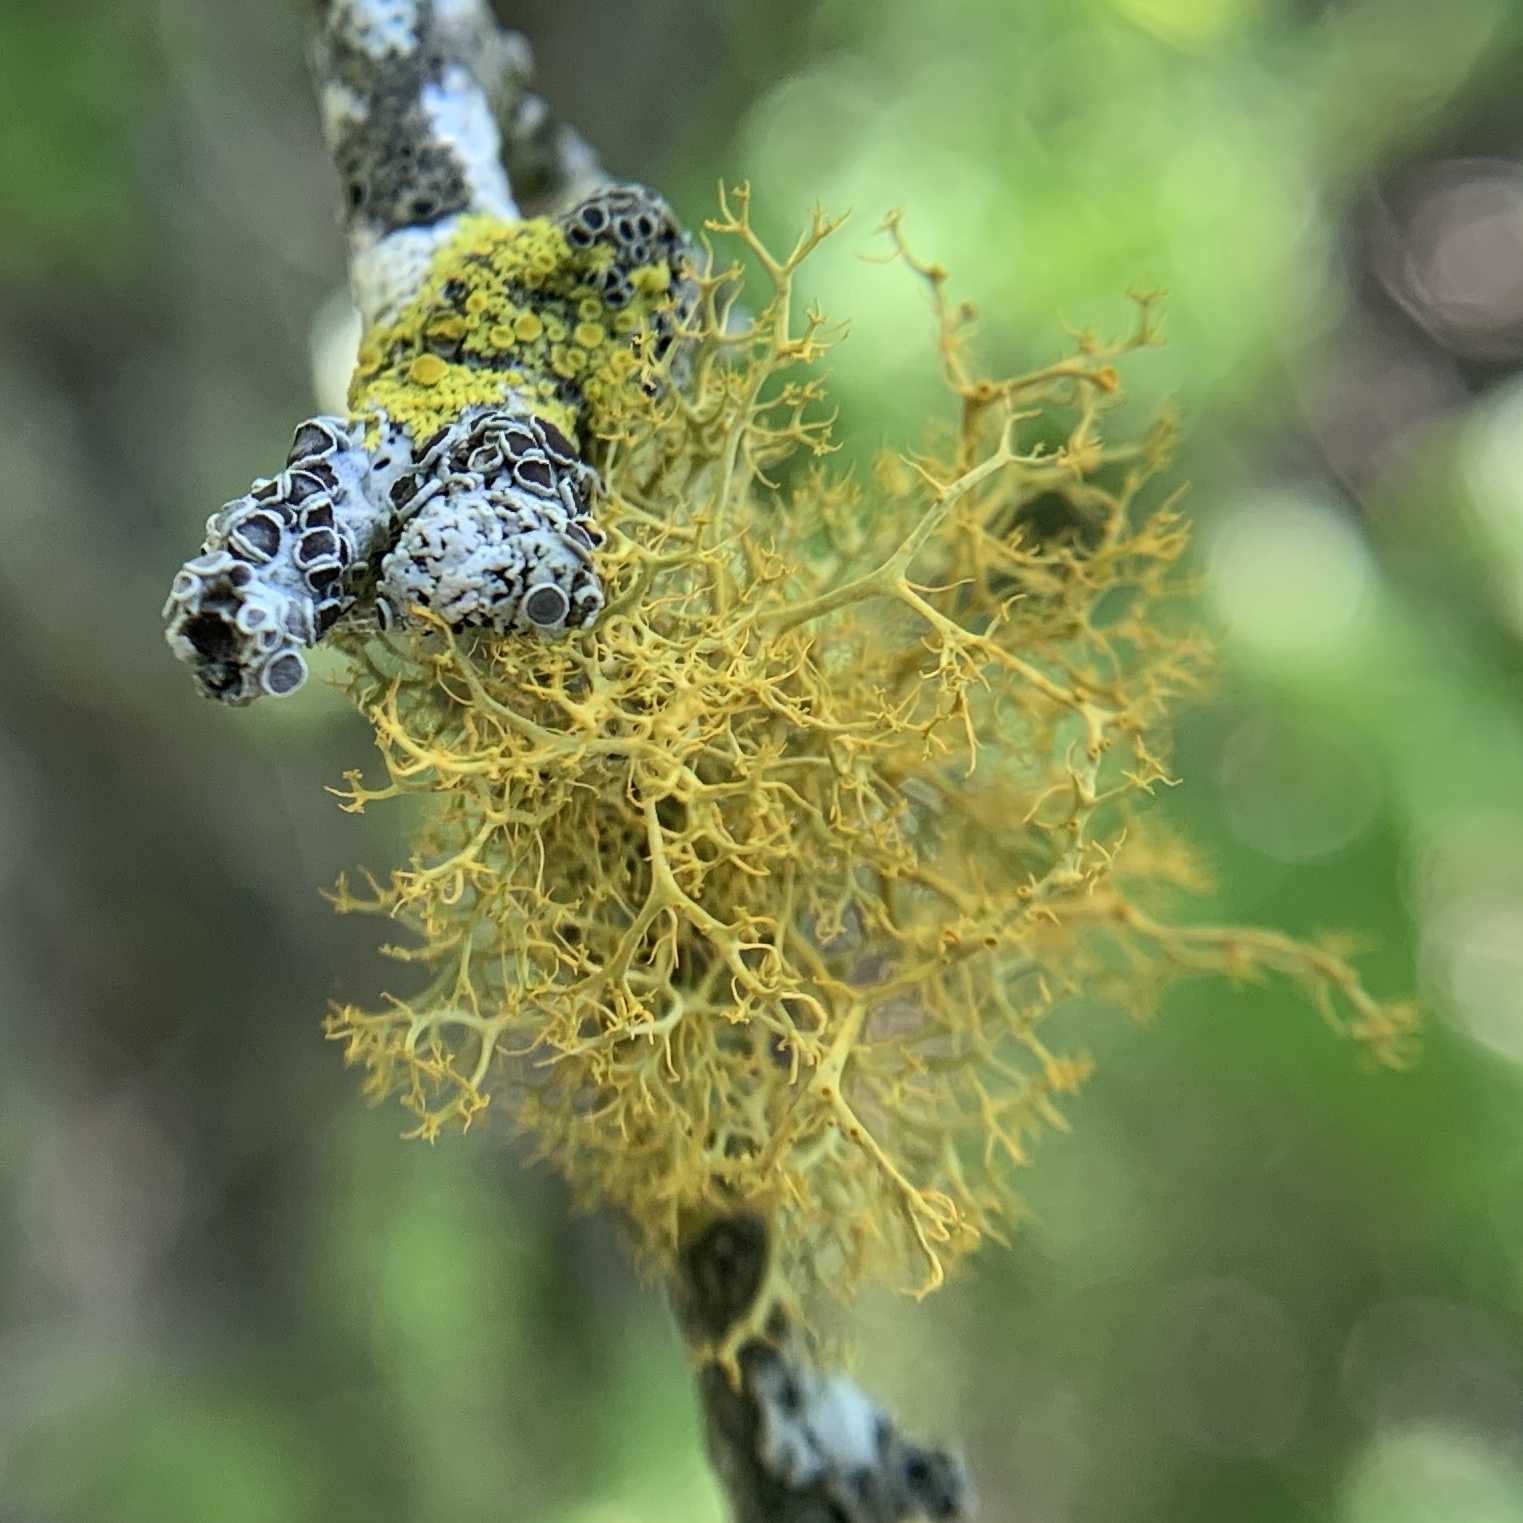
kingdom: Fungi
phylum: Ascomycota
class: Lecanoromycetes
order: Teloschistales
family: Teloschistaceae
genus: Teloschistes
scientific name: Teloschistes exilis
